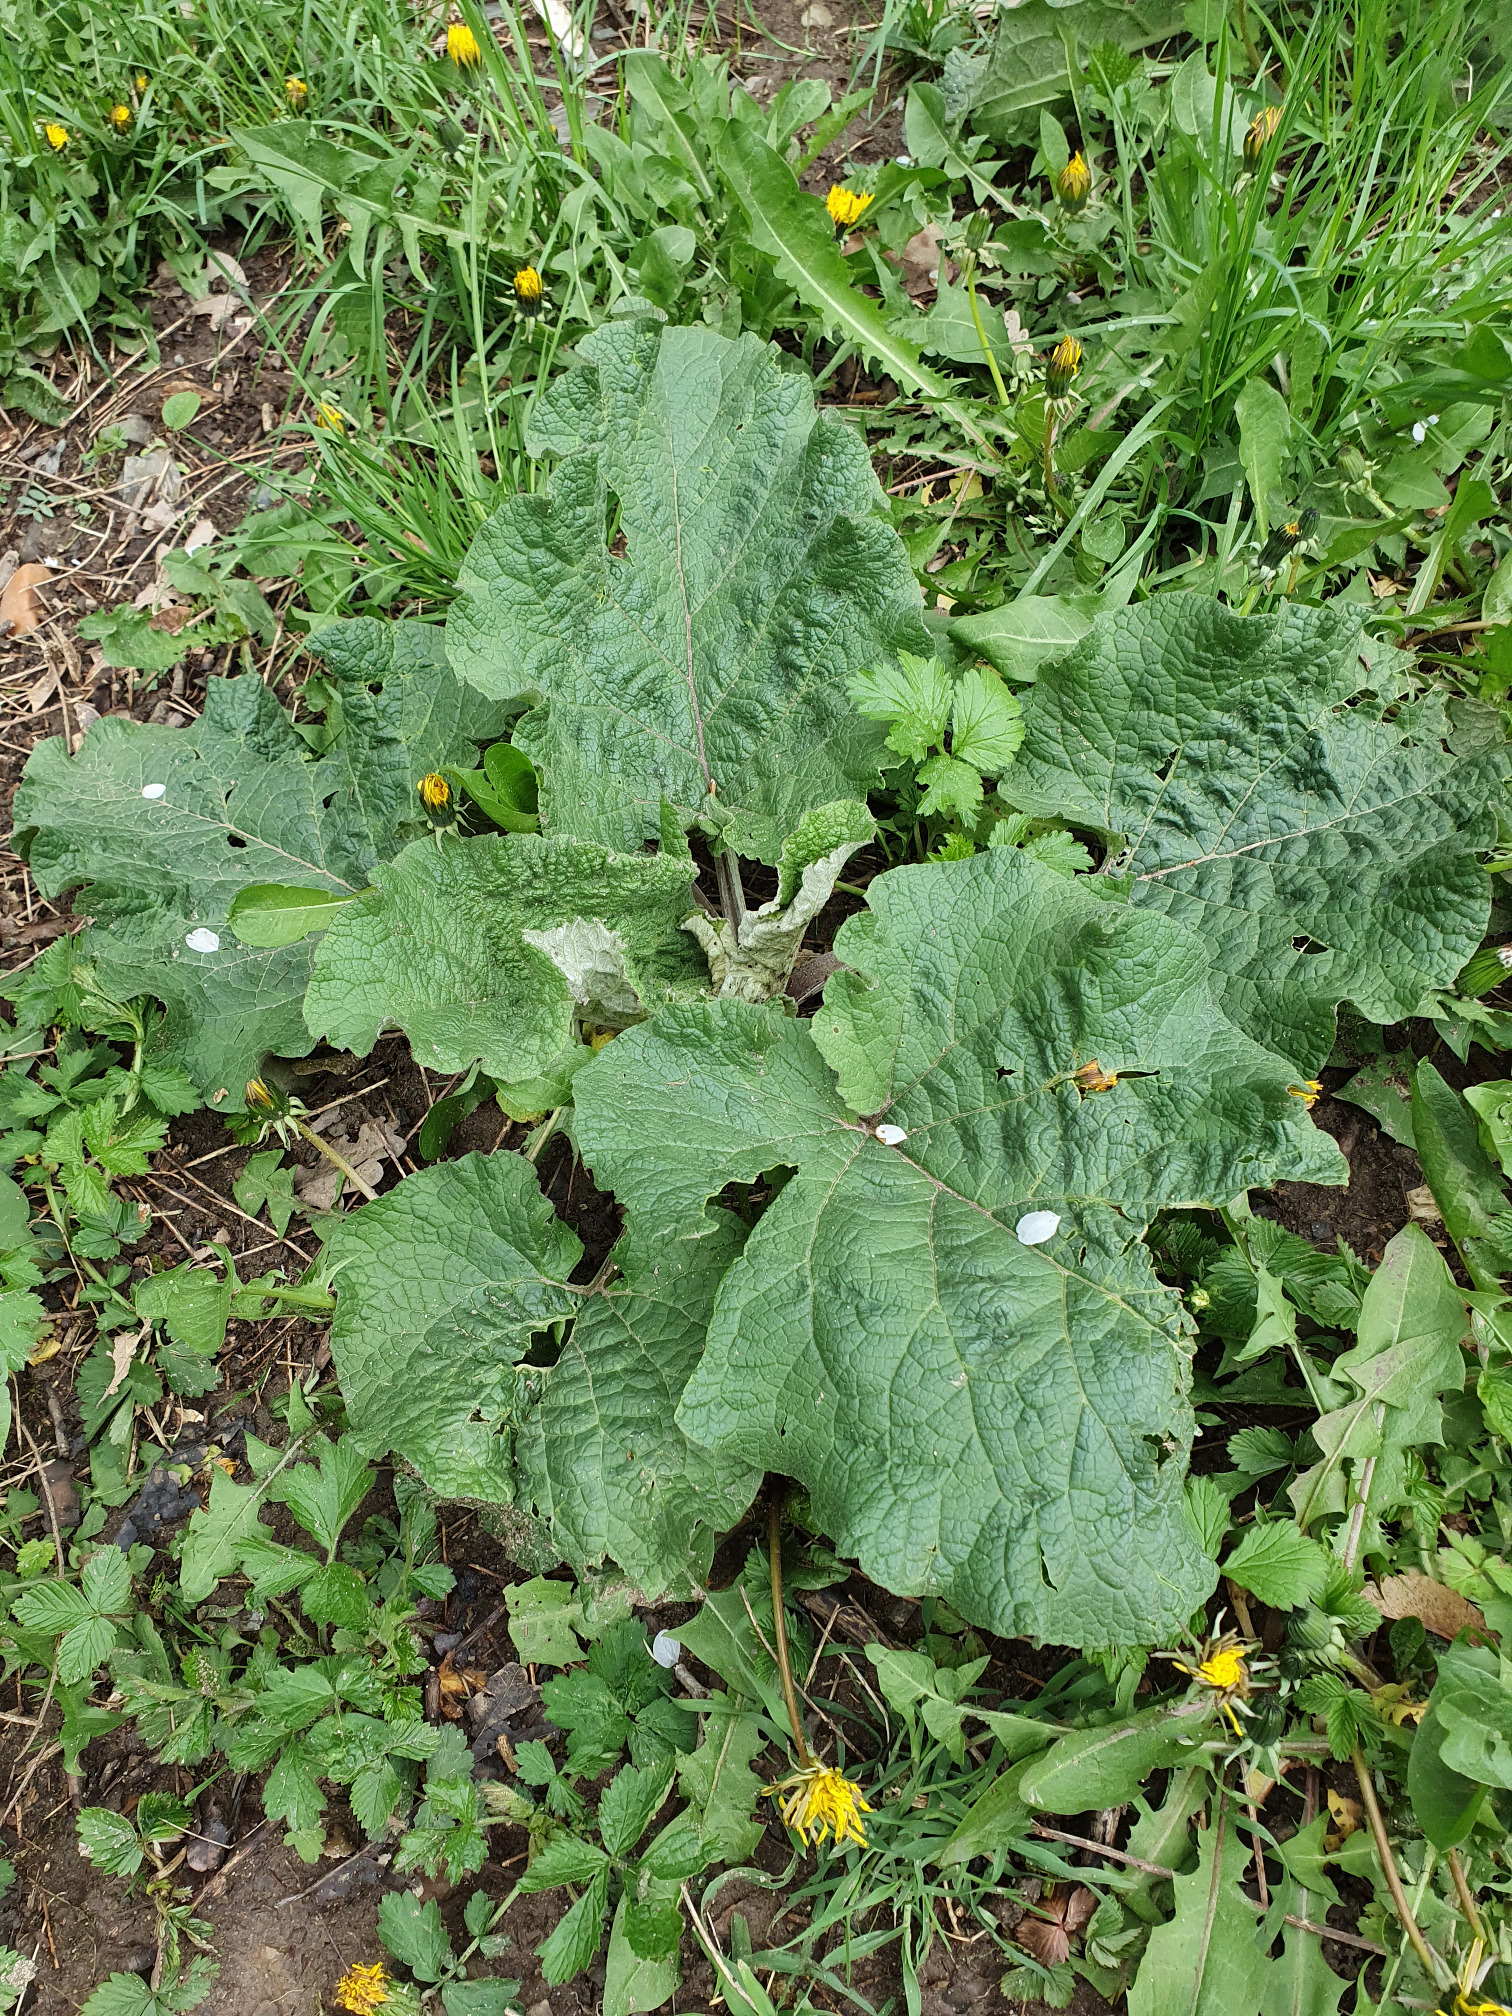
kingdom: Plantae
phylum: Tracheophyta
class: Magnoliopsida
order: Asterales
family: Asteraceae
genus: Arctium
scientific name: Arctium
